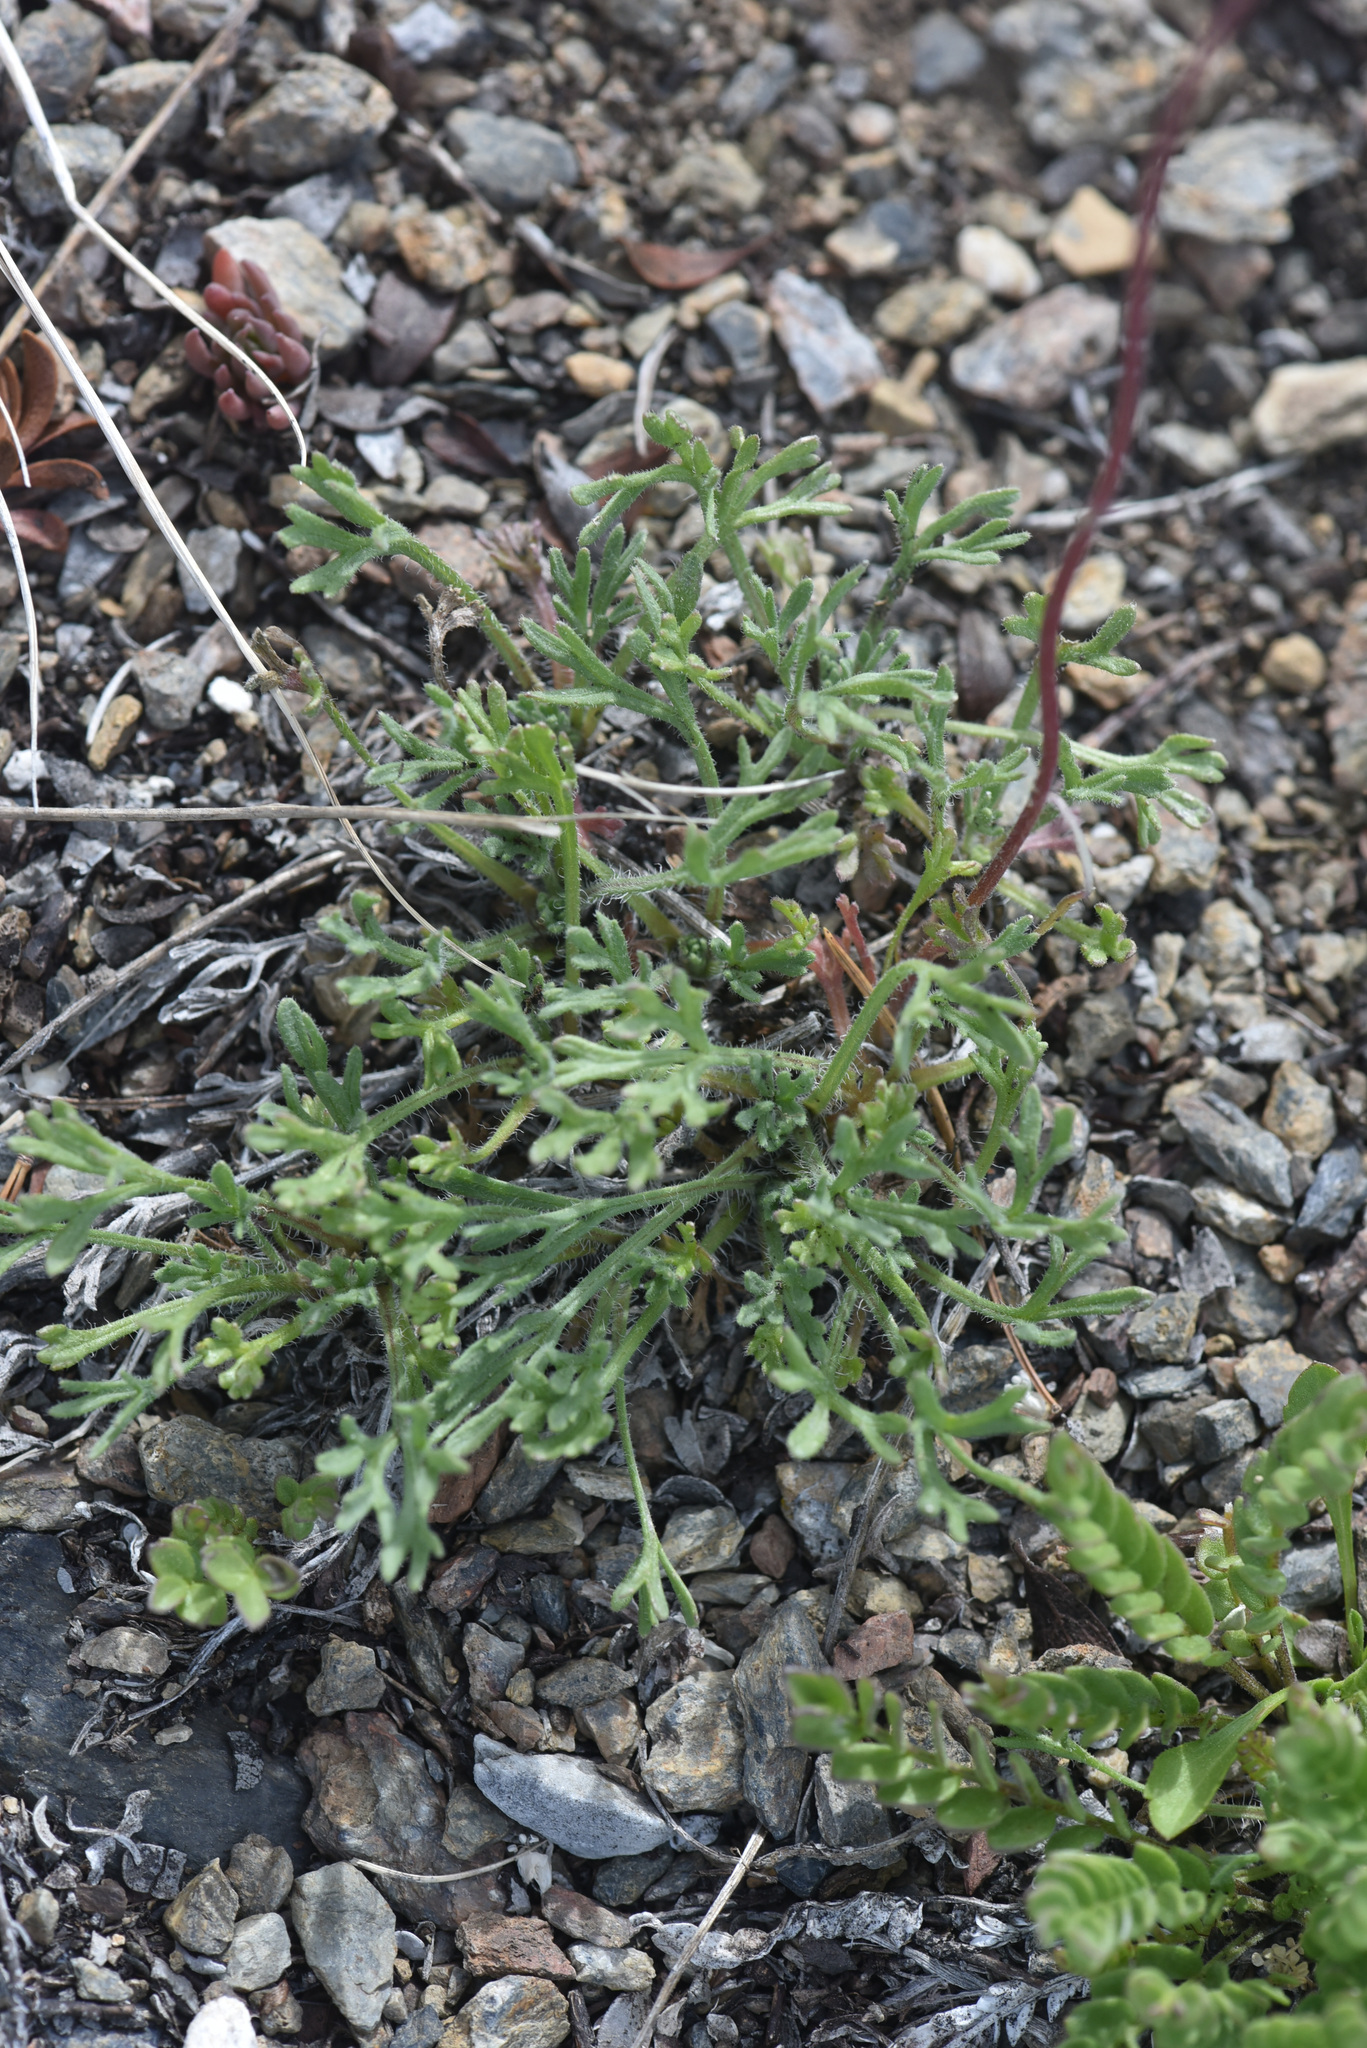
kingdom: Plantae
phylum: Tracheophyta
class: Magnoliopsida
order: Asterales
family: Asteraceae
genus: Erigeron
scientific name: Erigeron compositus
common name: Dwarf mountain fleabane
